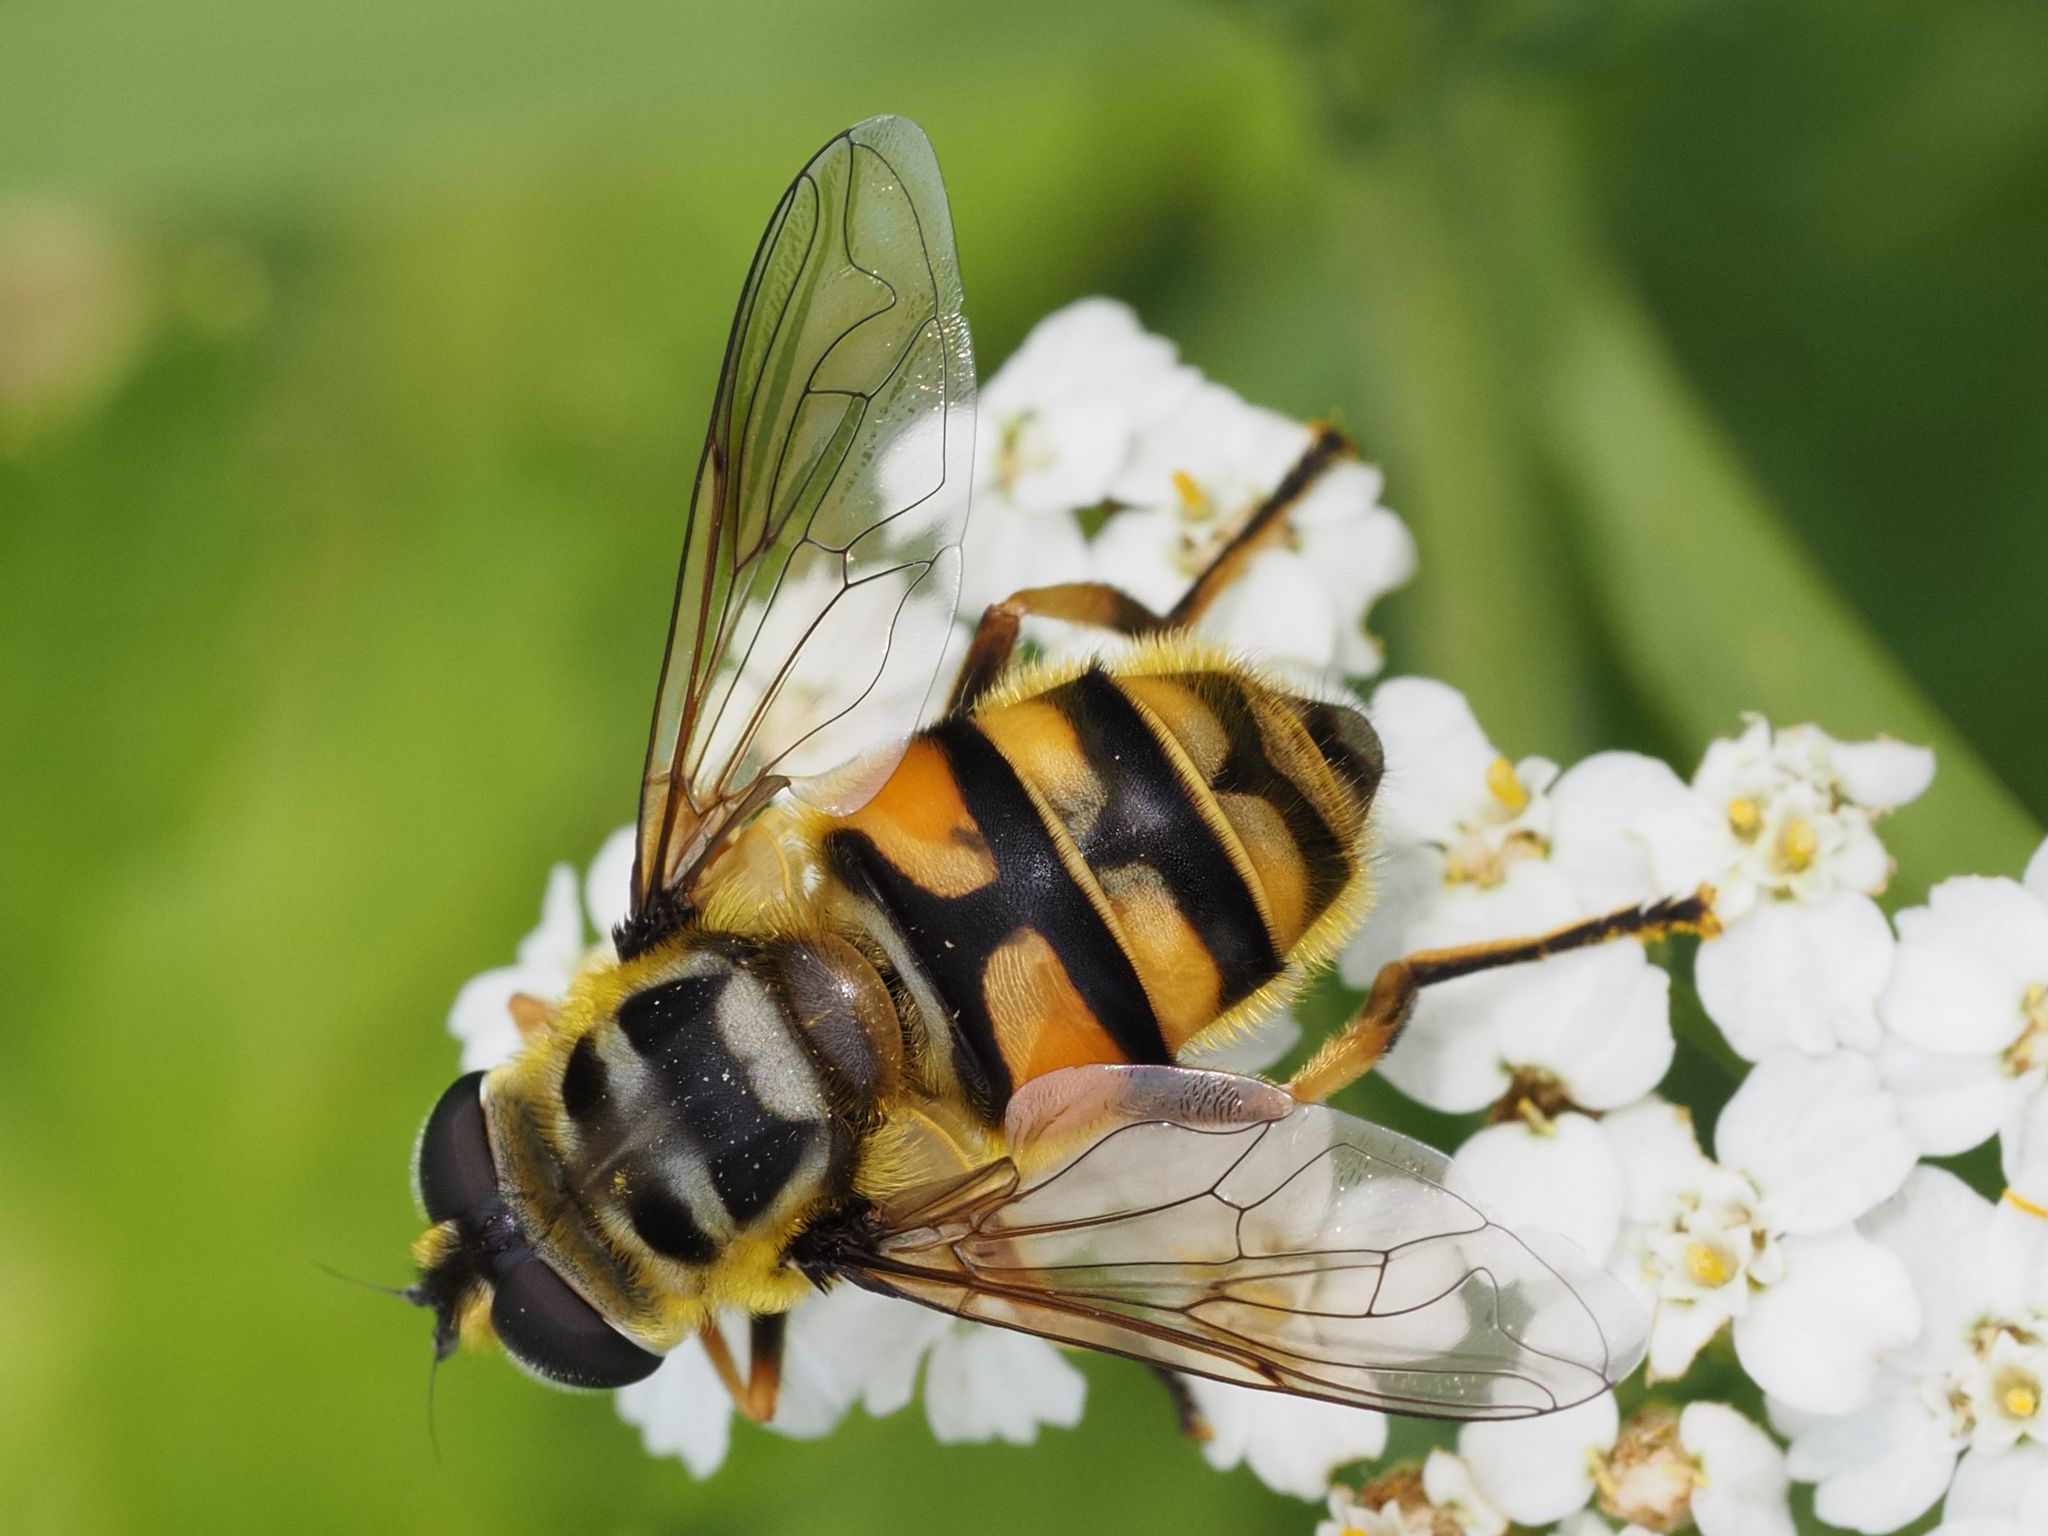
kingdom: Animalia
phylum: Arthropoda
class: Insecta
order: Diptera
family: Syrphidae
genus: Myathropa
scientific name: Myathropa florea
